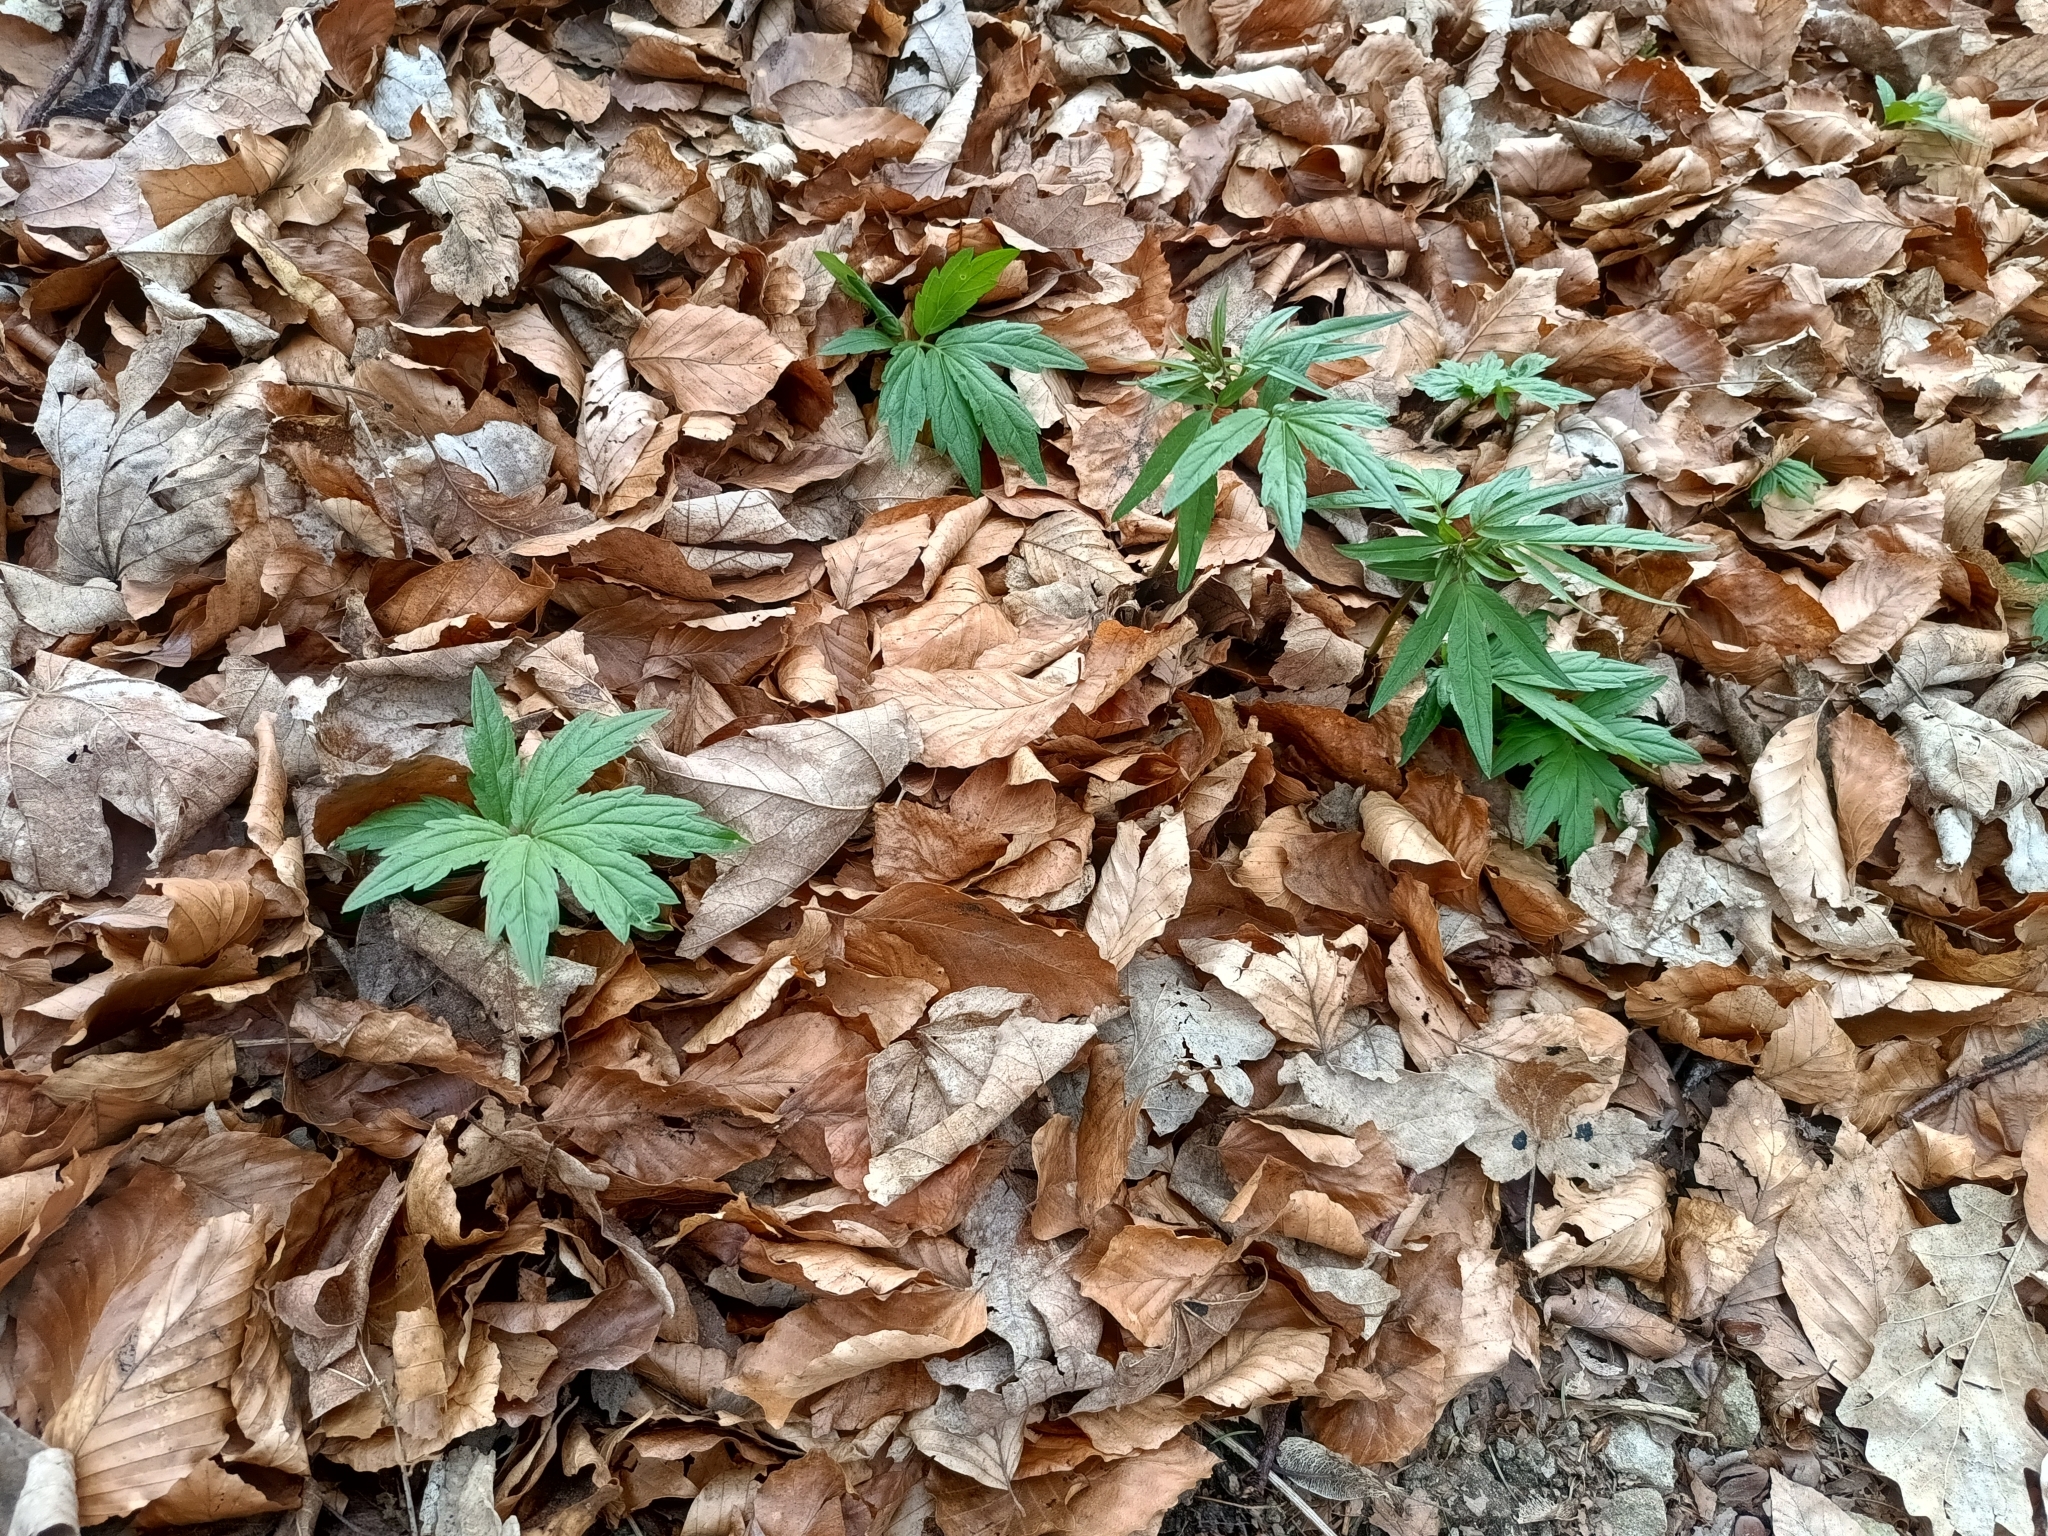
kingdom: Plantae
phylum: Tracheophyta
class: Magnoliopsida
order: Brassicales
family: Brassicaceae
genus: Cardamine
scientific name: Cardamine bulbifera
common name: Coralroot bittercress
